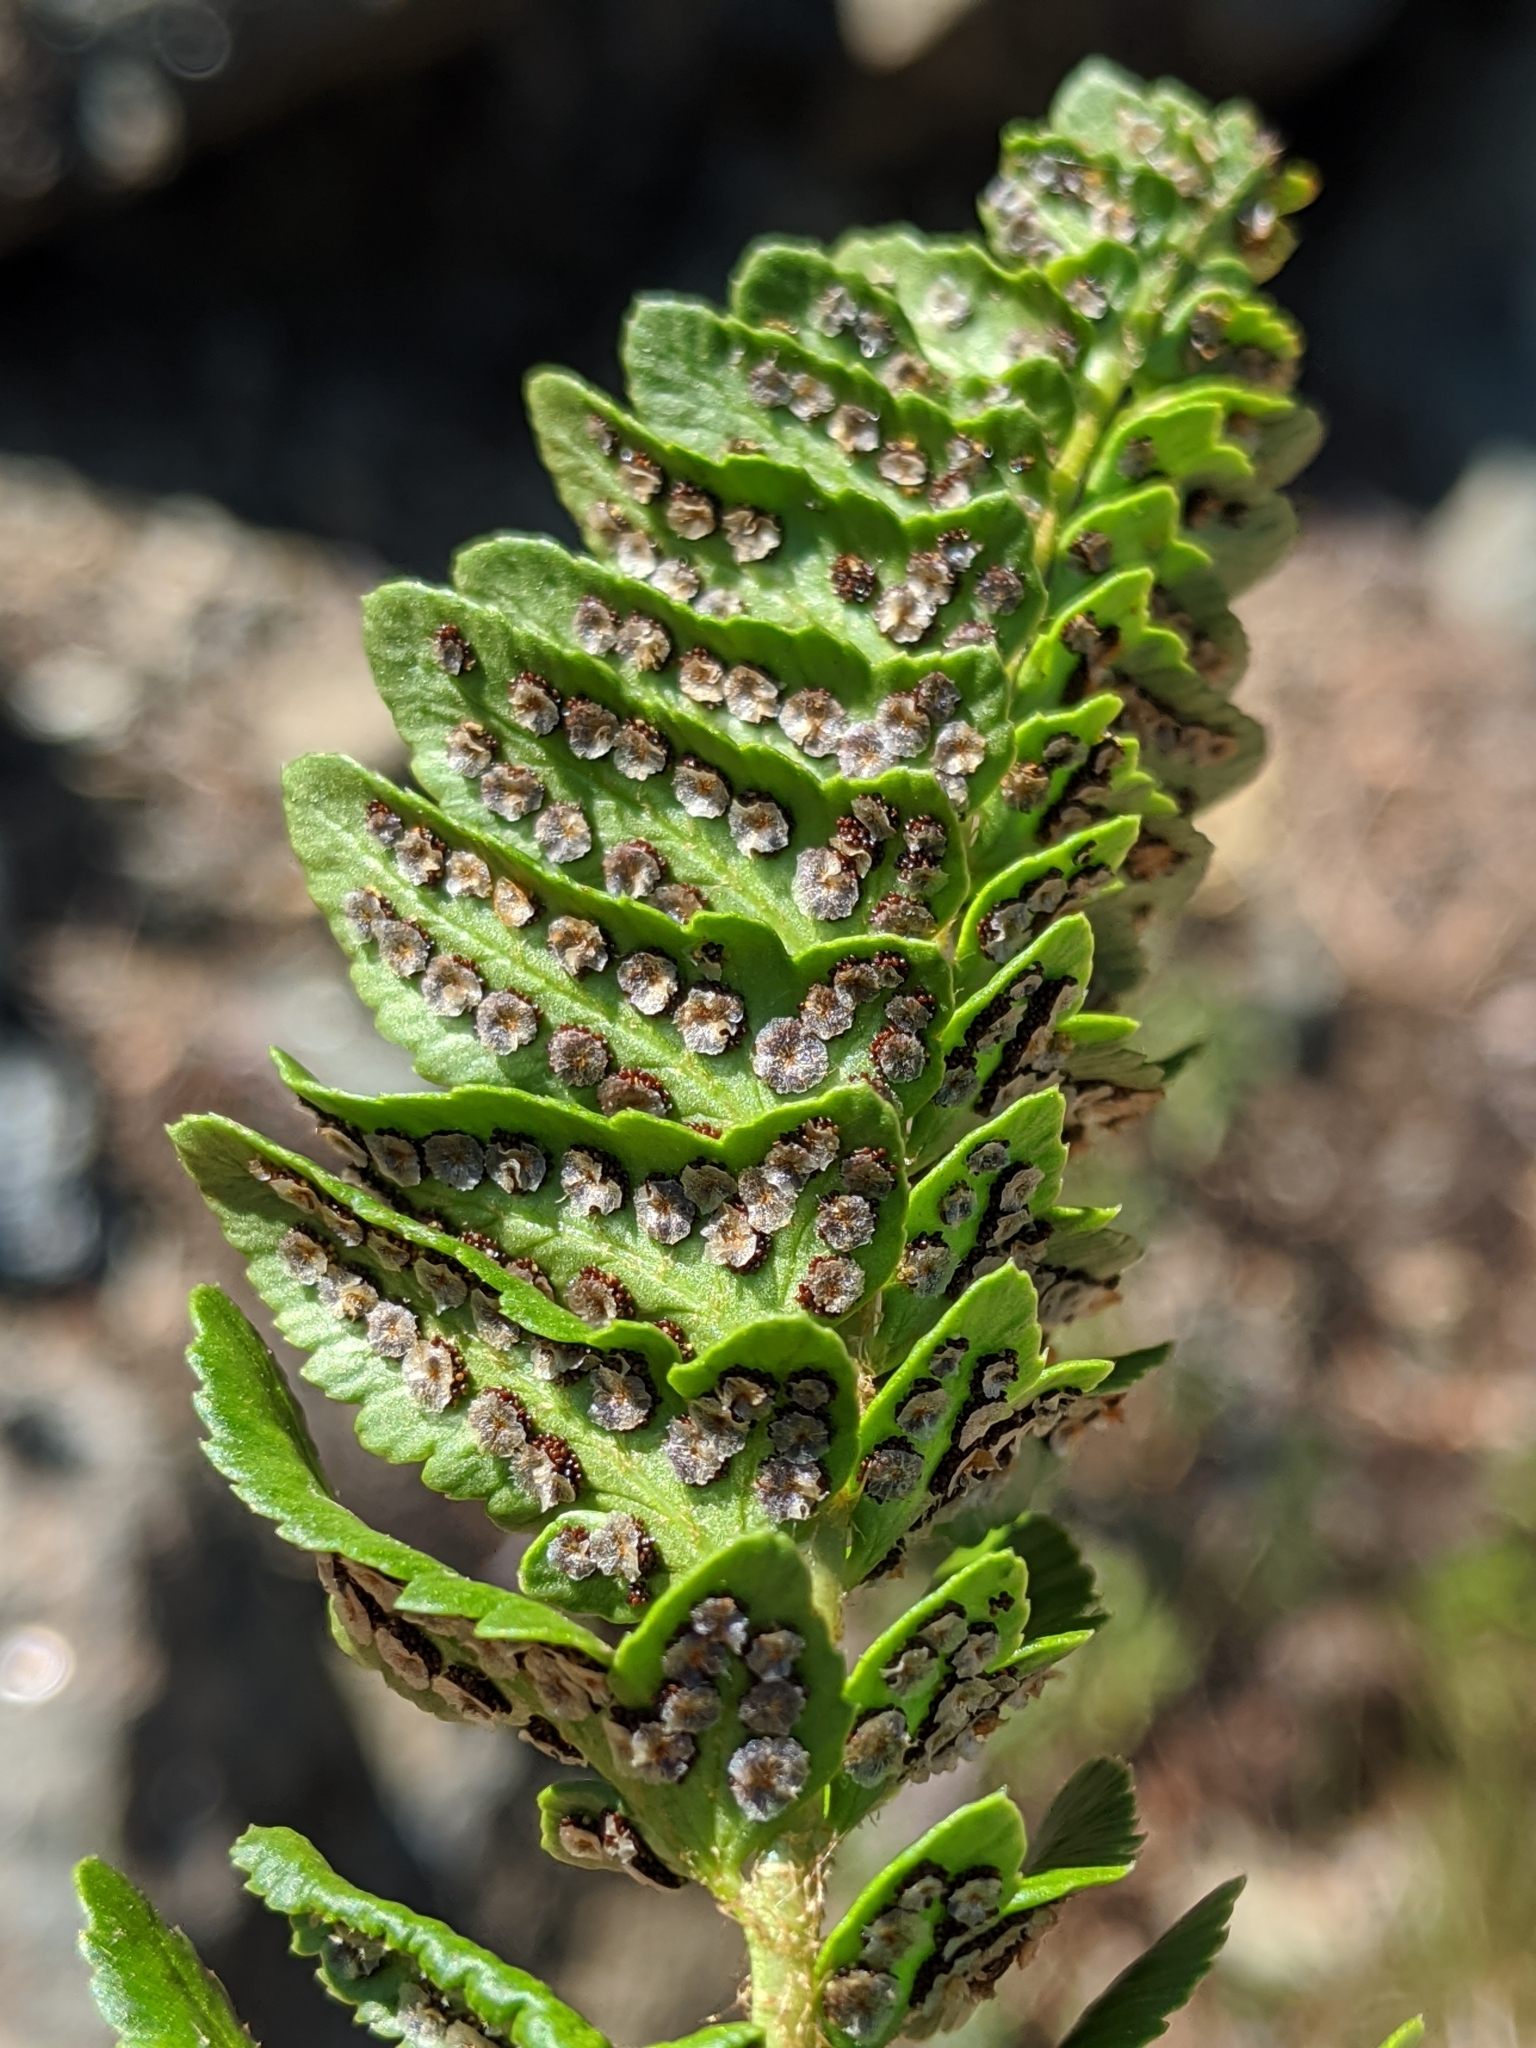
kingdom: Plantae
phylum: Tracheophyta
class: Polypodiopsida
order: Polypodiales
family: Dryopteridaceae
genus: Polystichum
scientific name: Polystichum scopulinum
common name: Eaton's shield fern
